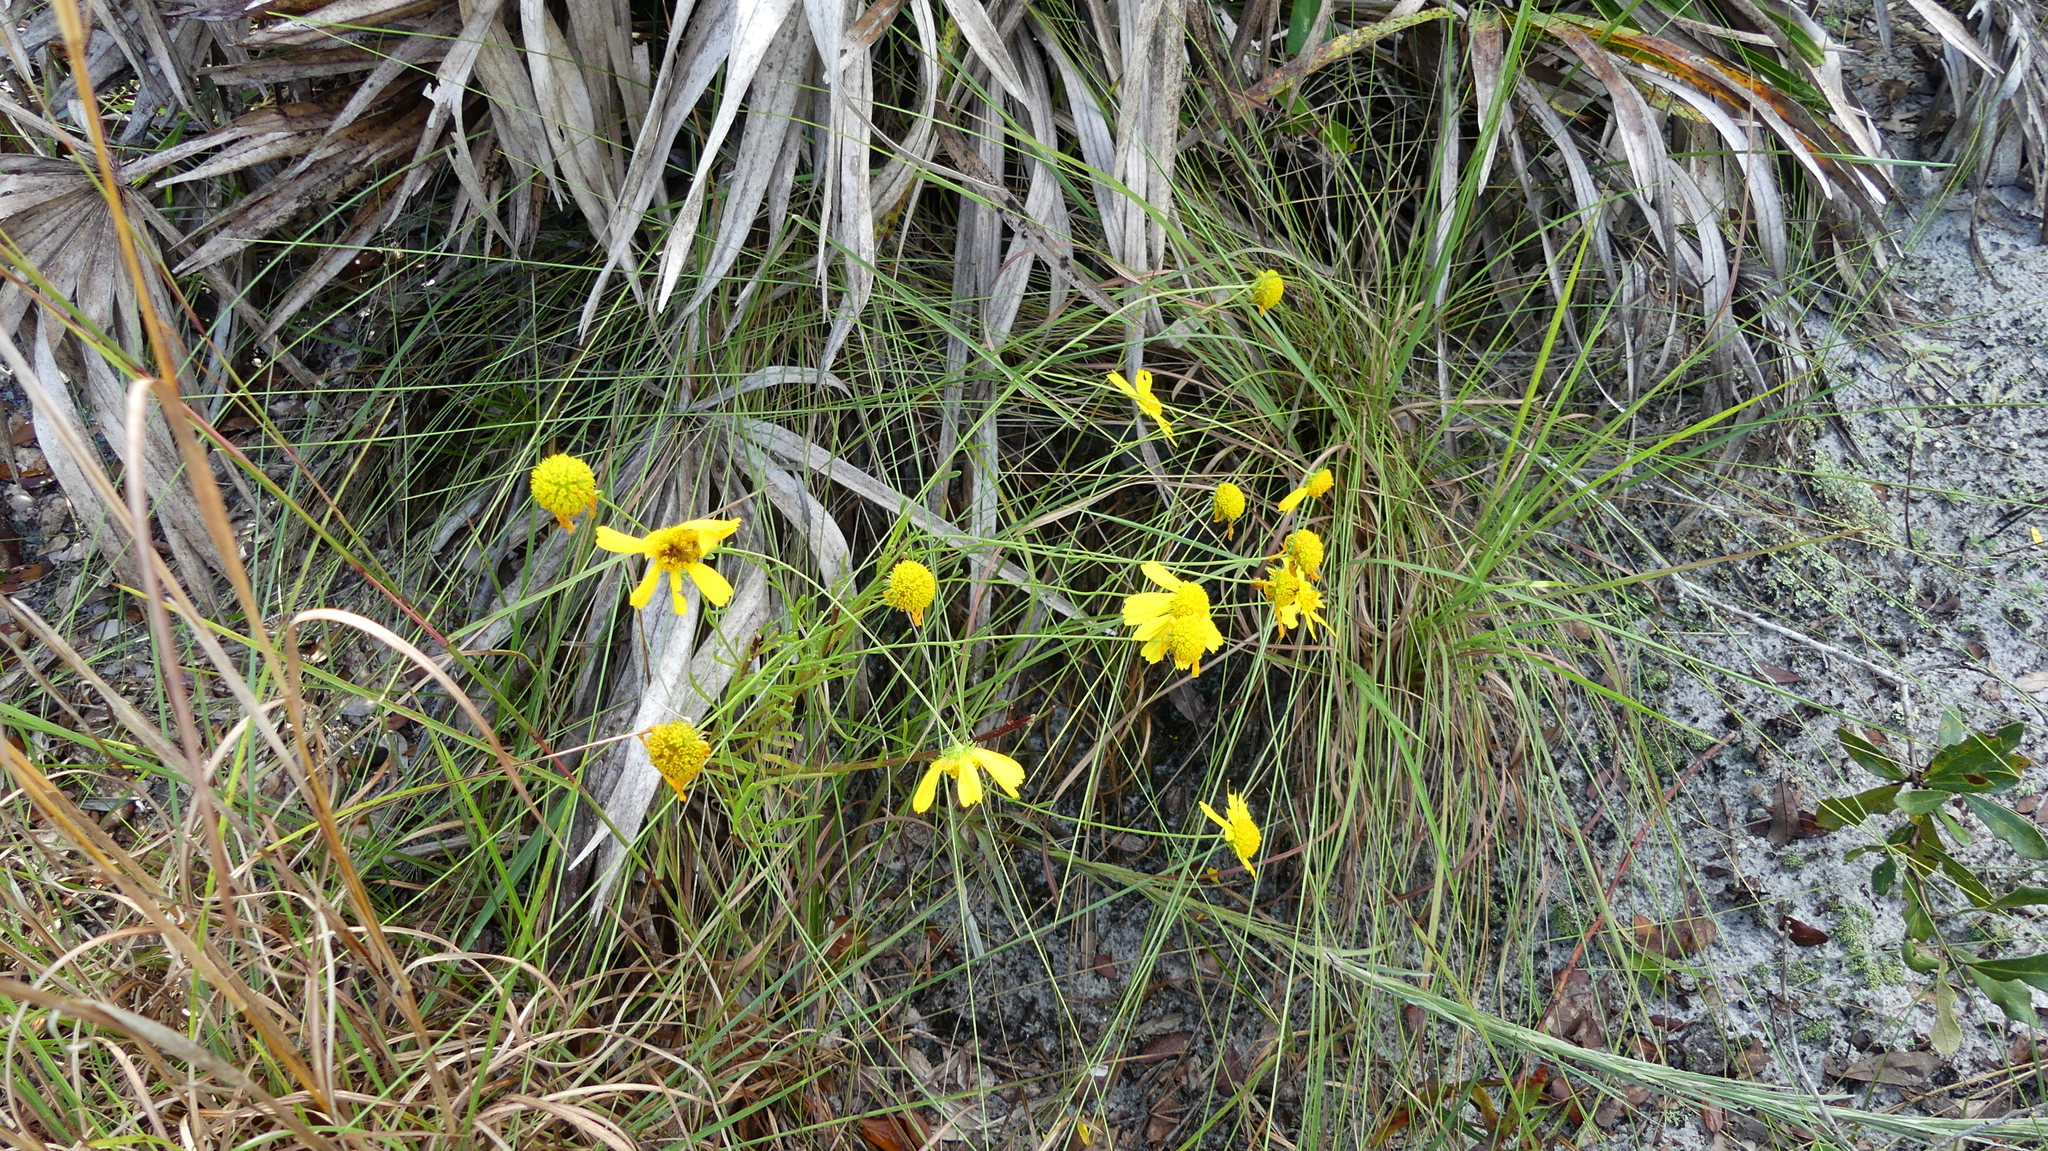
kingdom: Plantae
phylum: Tracheophyta
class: Magnoliopsida
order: Asterales
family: Asteraceae
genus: Balduina
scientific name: Balduina angustifolia
